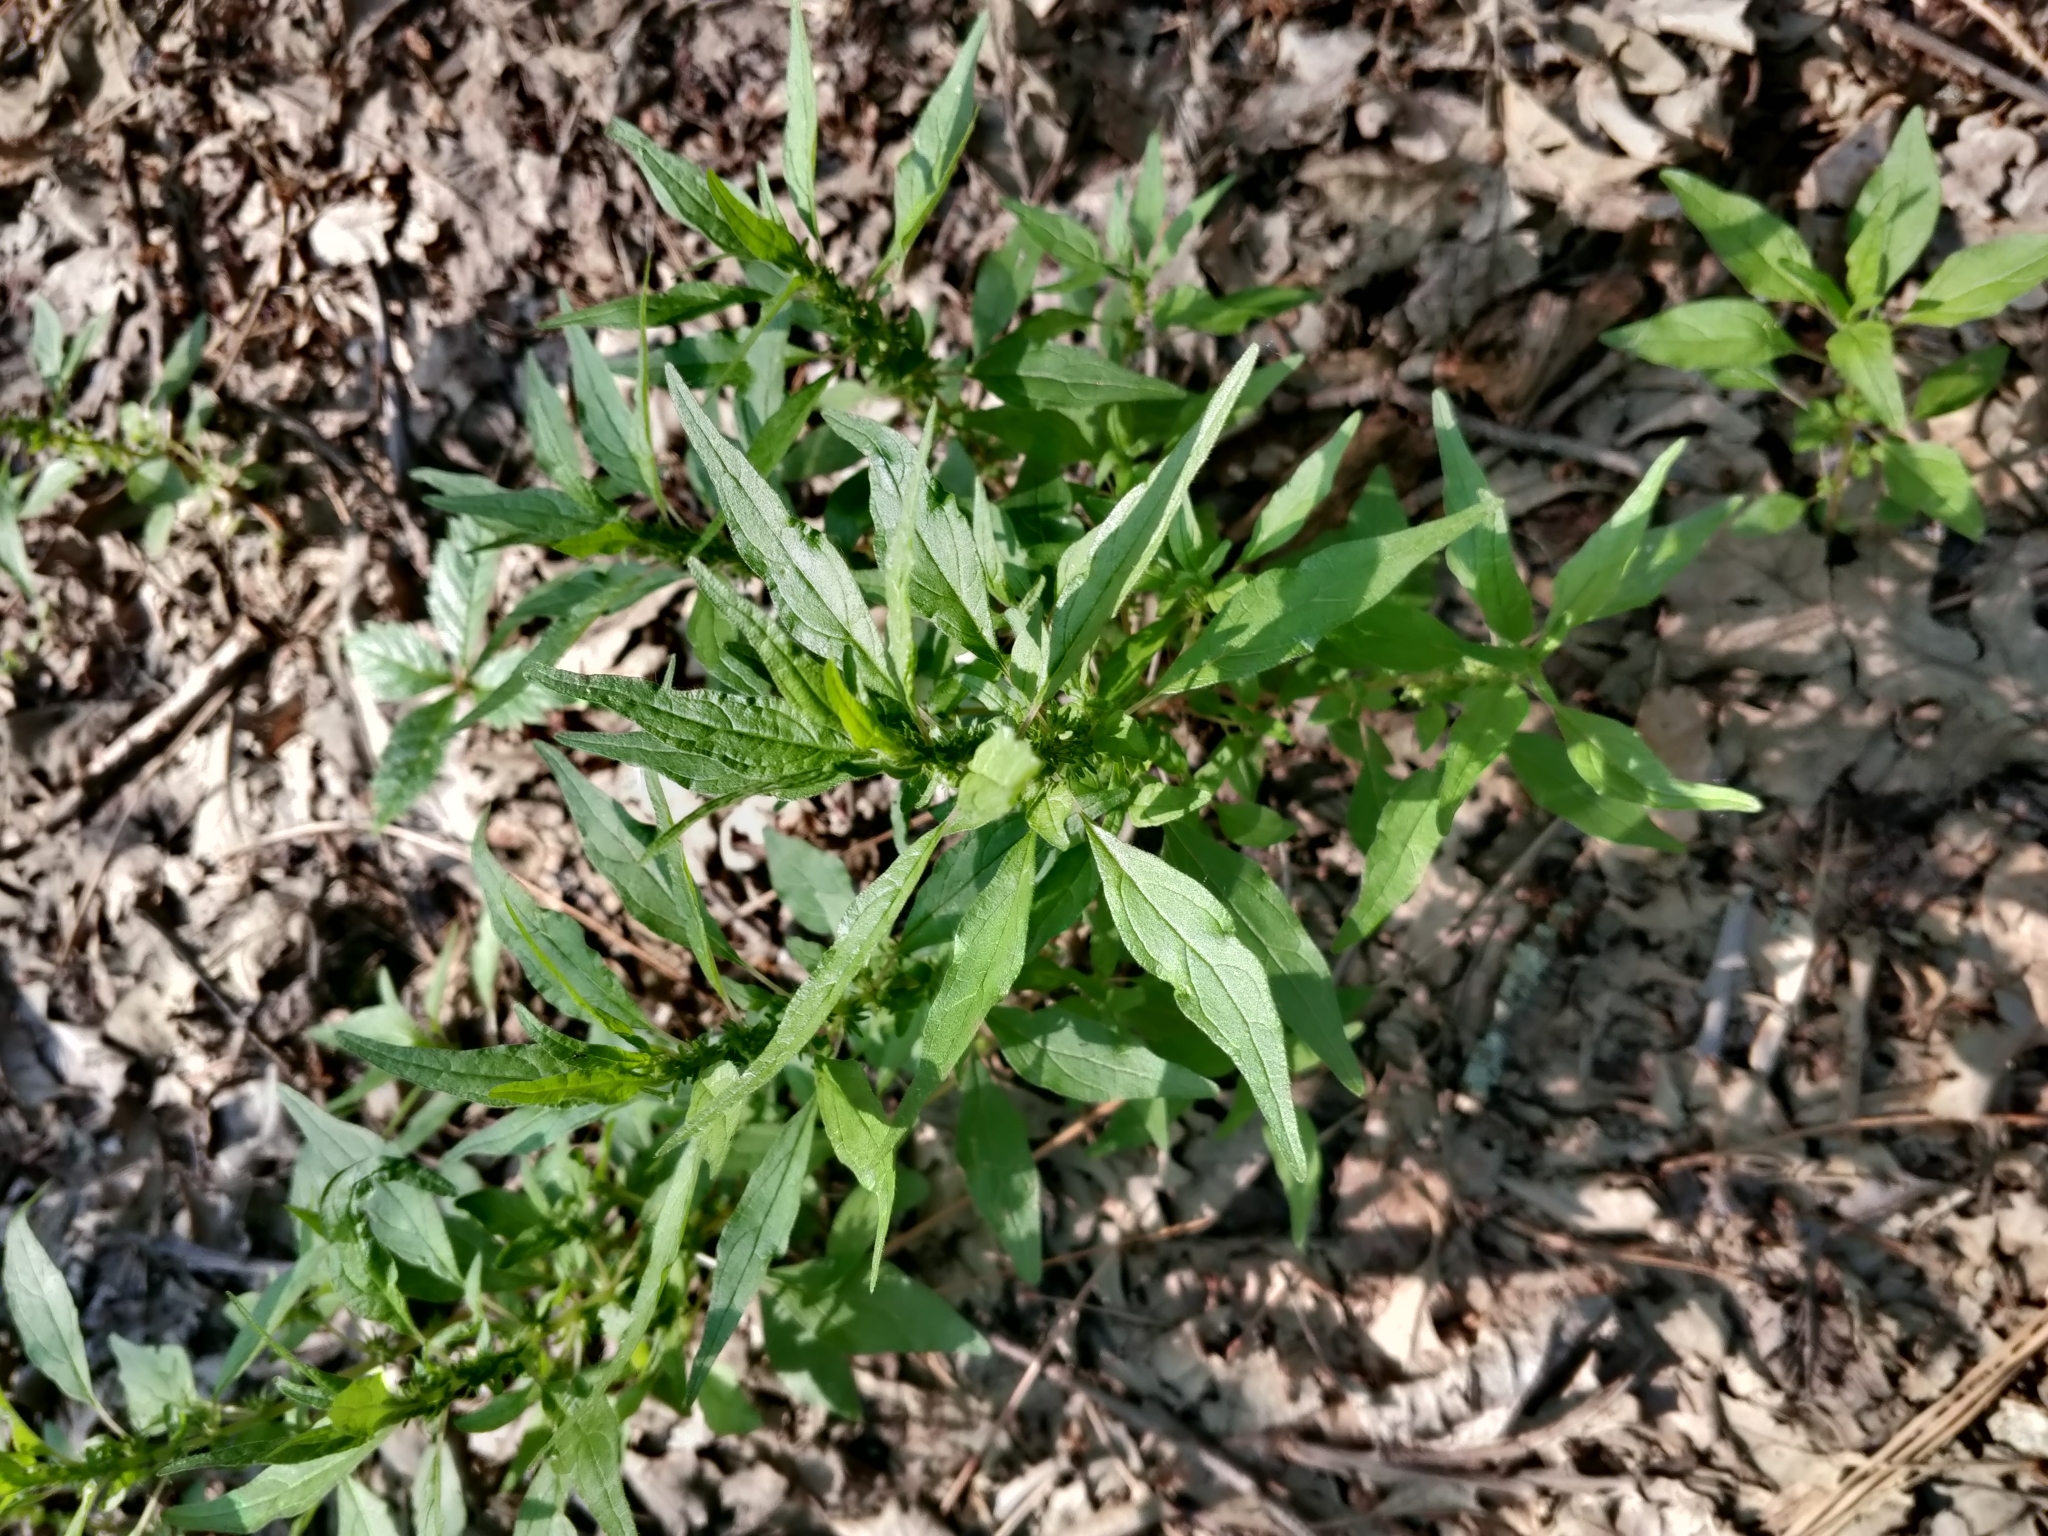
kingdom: Plantae
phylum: Tracheophyta
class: Magnoliopsida
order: Rosales
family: Urticaceae
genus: Parietaria
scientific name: Parietaria pensylvanica
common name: Pennsylvania pellitory
